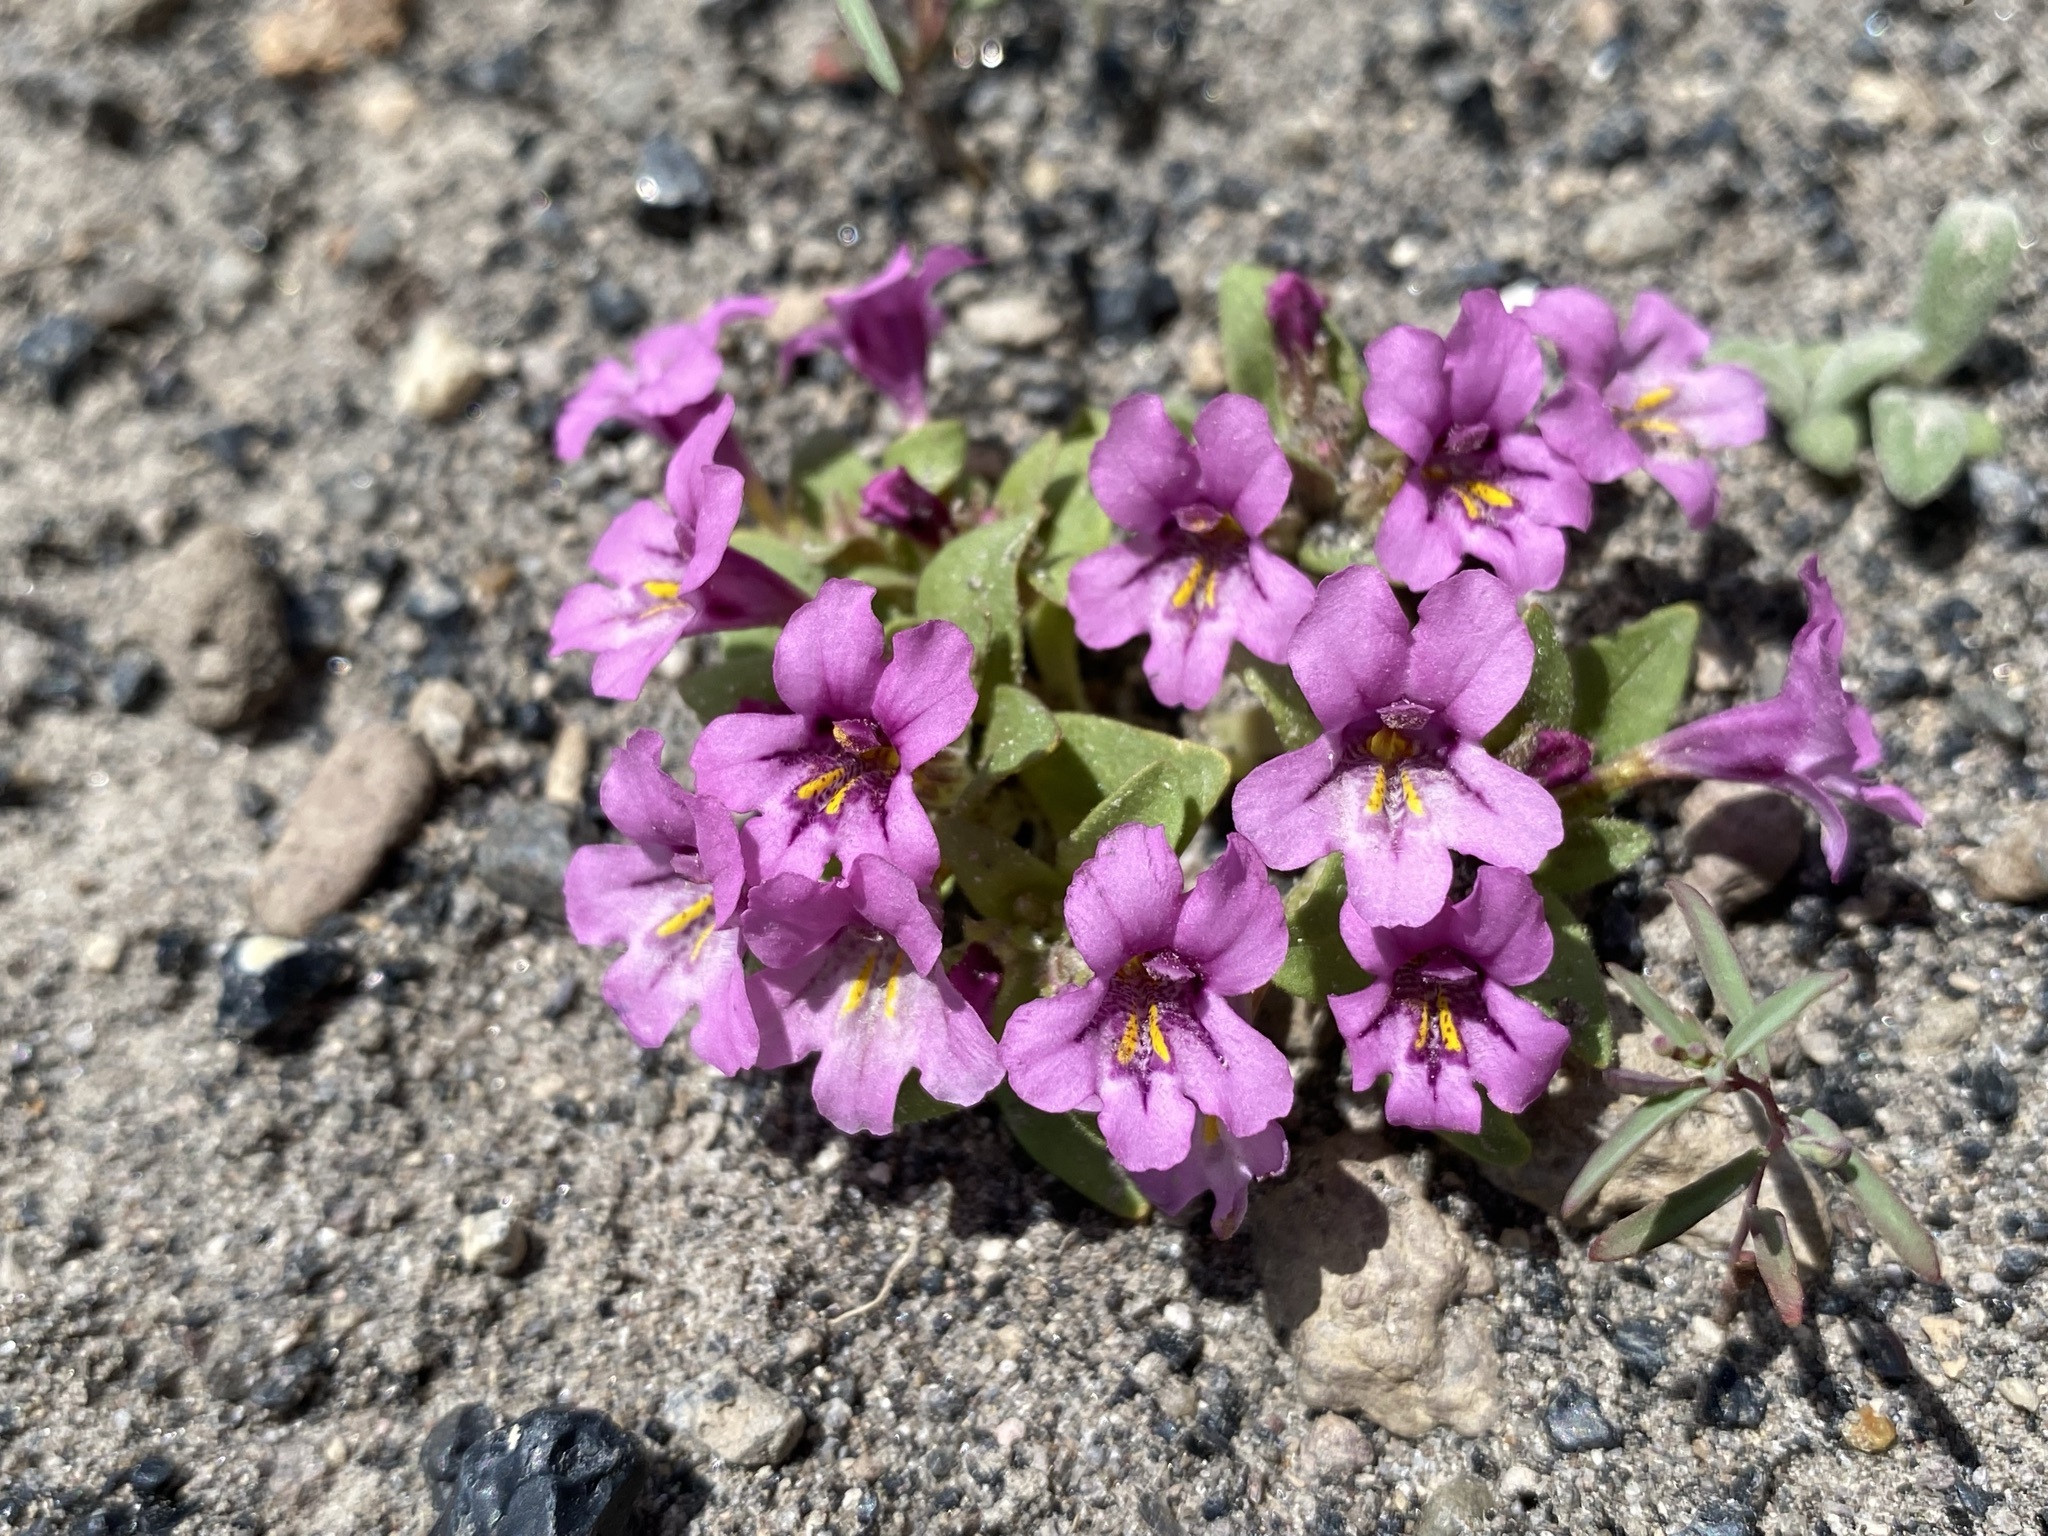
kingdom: Plantae
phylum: Tracheophyta
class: Magnoliopsida
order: Lamiales
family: Phrymaceae
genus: Diplacus
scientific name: Diplacus nanus
